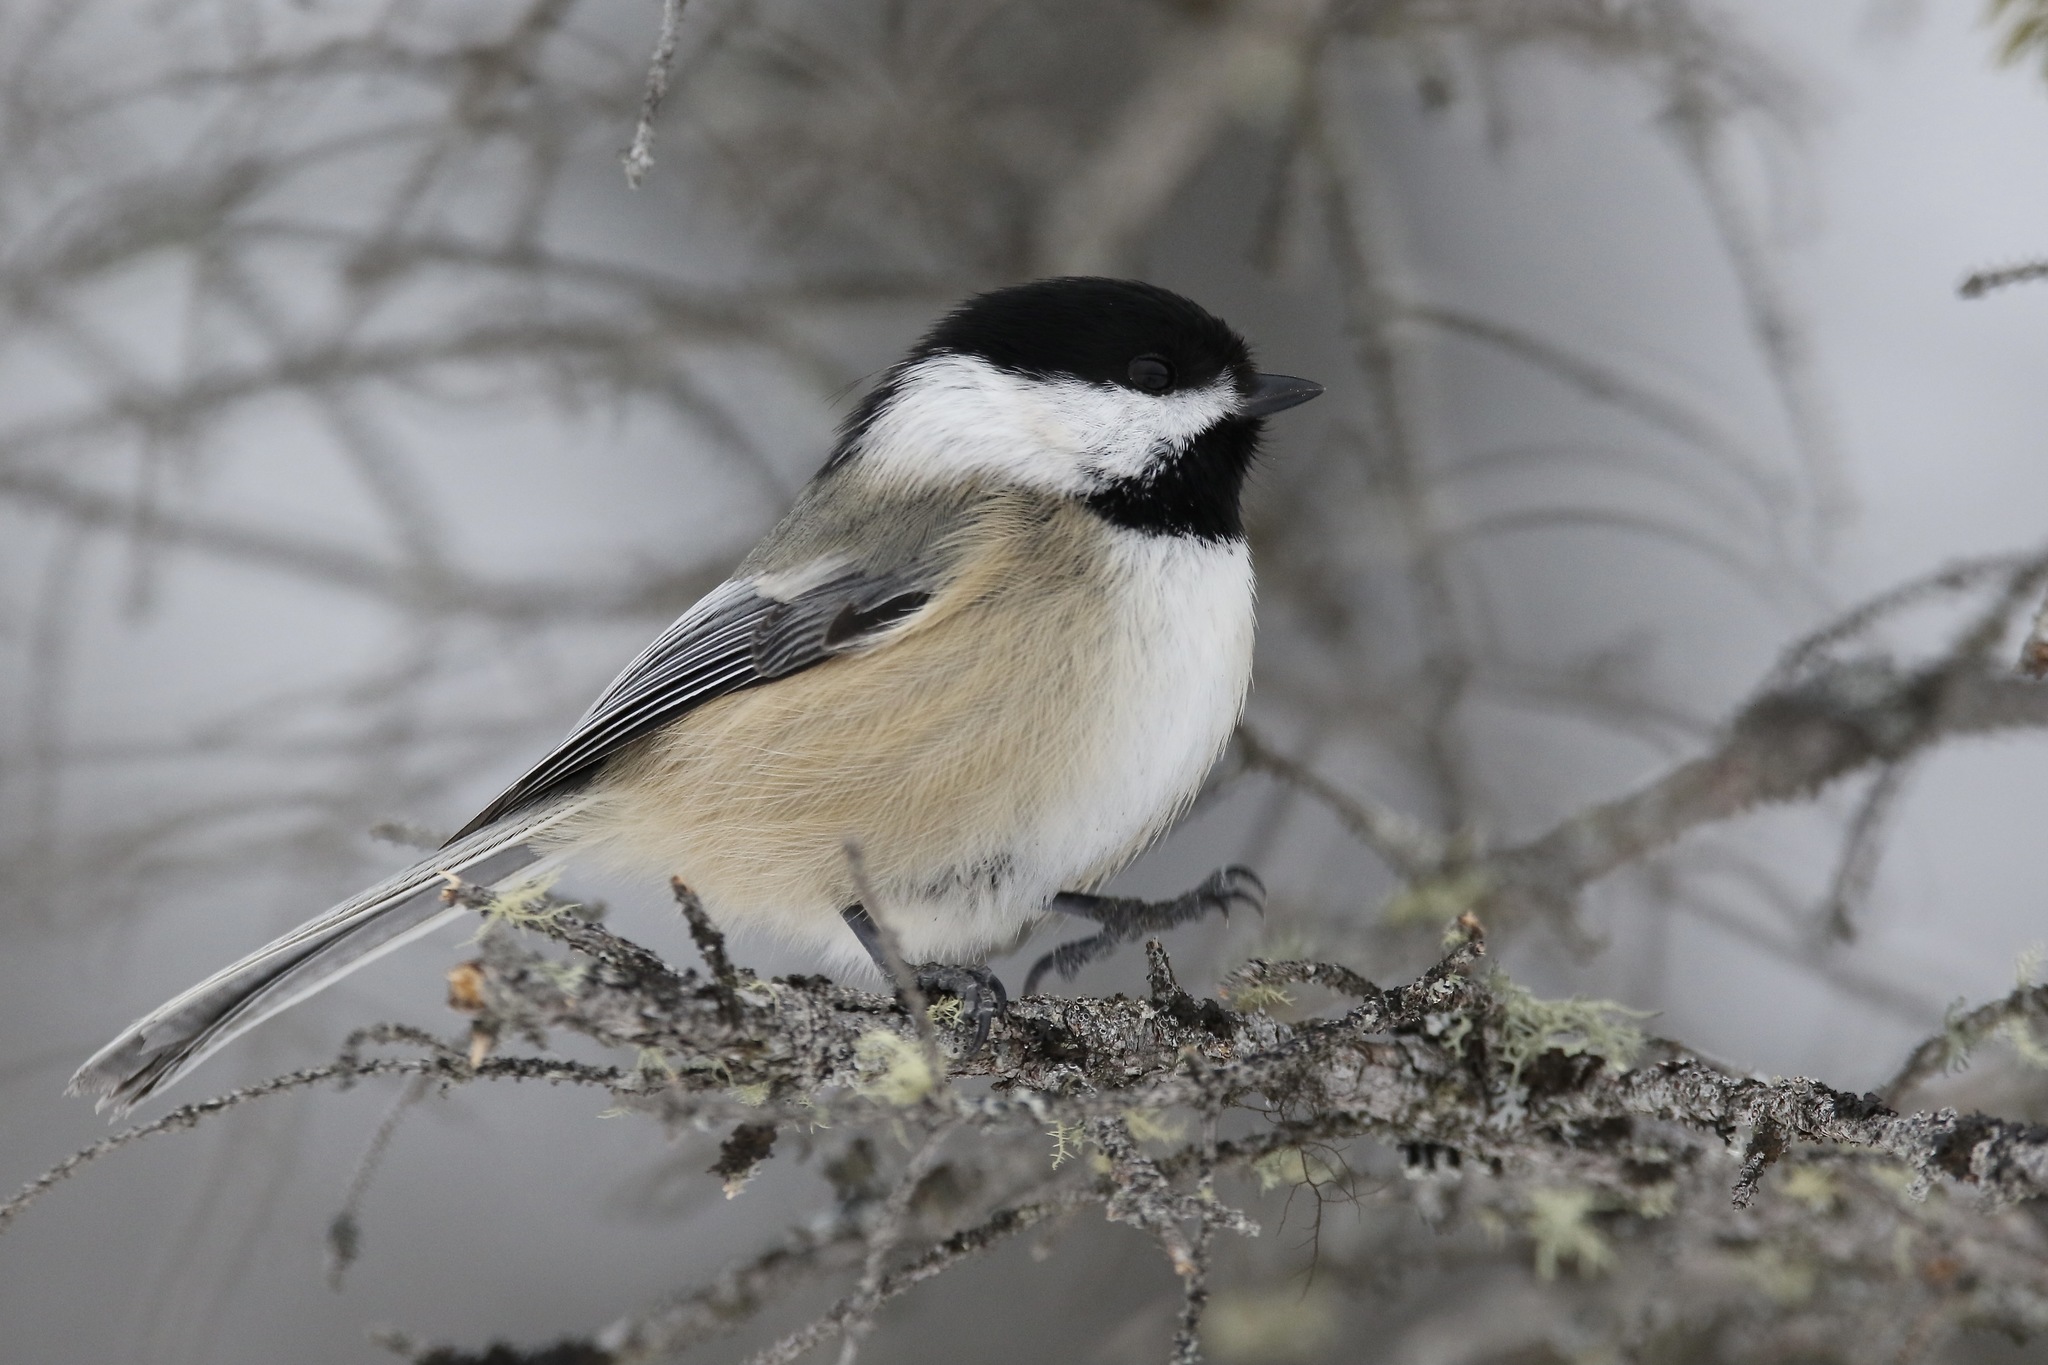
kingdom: Animalia
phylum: Chordata
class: Aves
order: Passeriformes
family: Paridae
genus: Poecile
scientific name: Poecile atricapillus
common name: Black-capped chickadee
